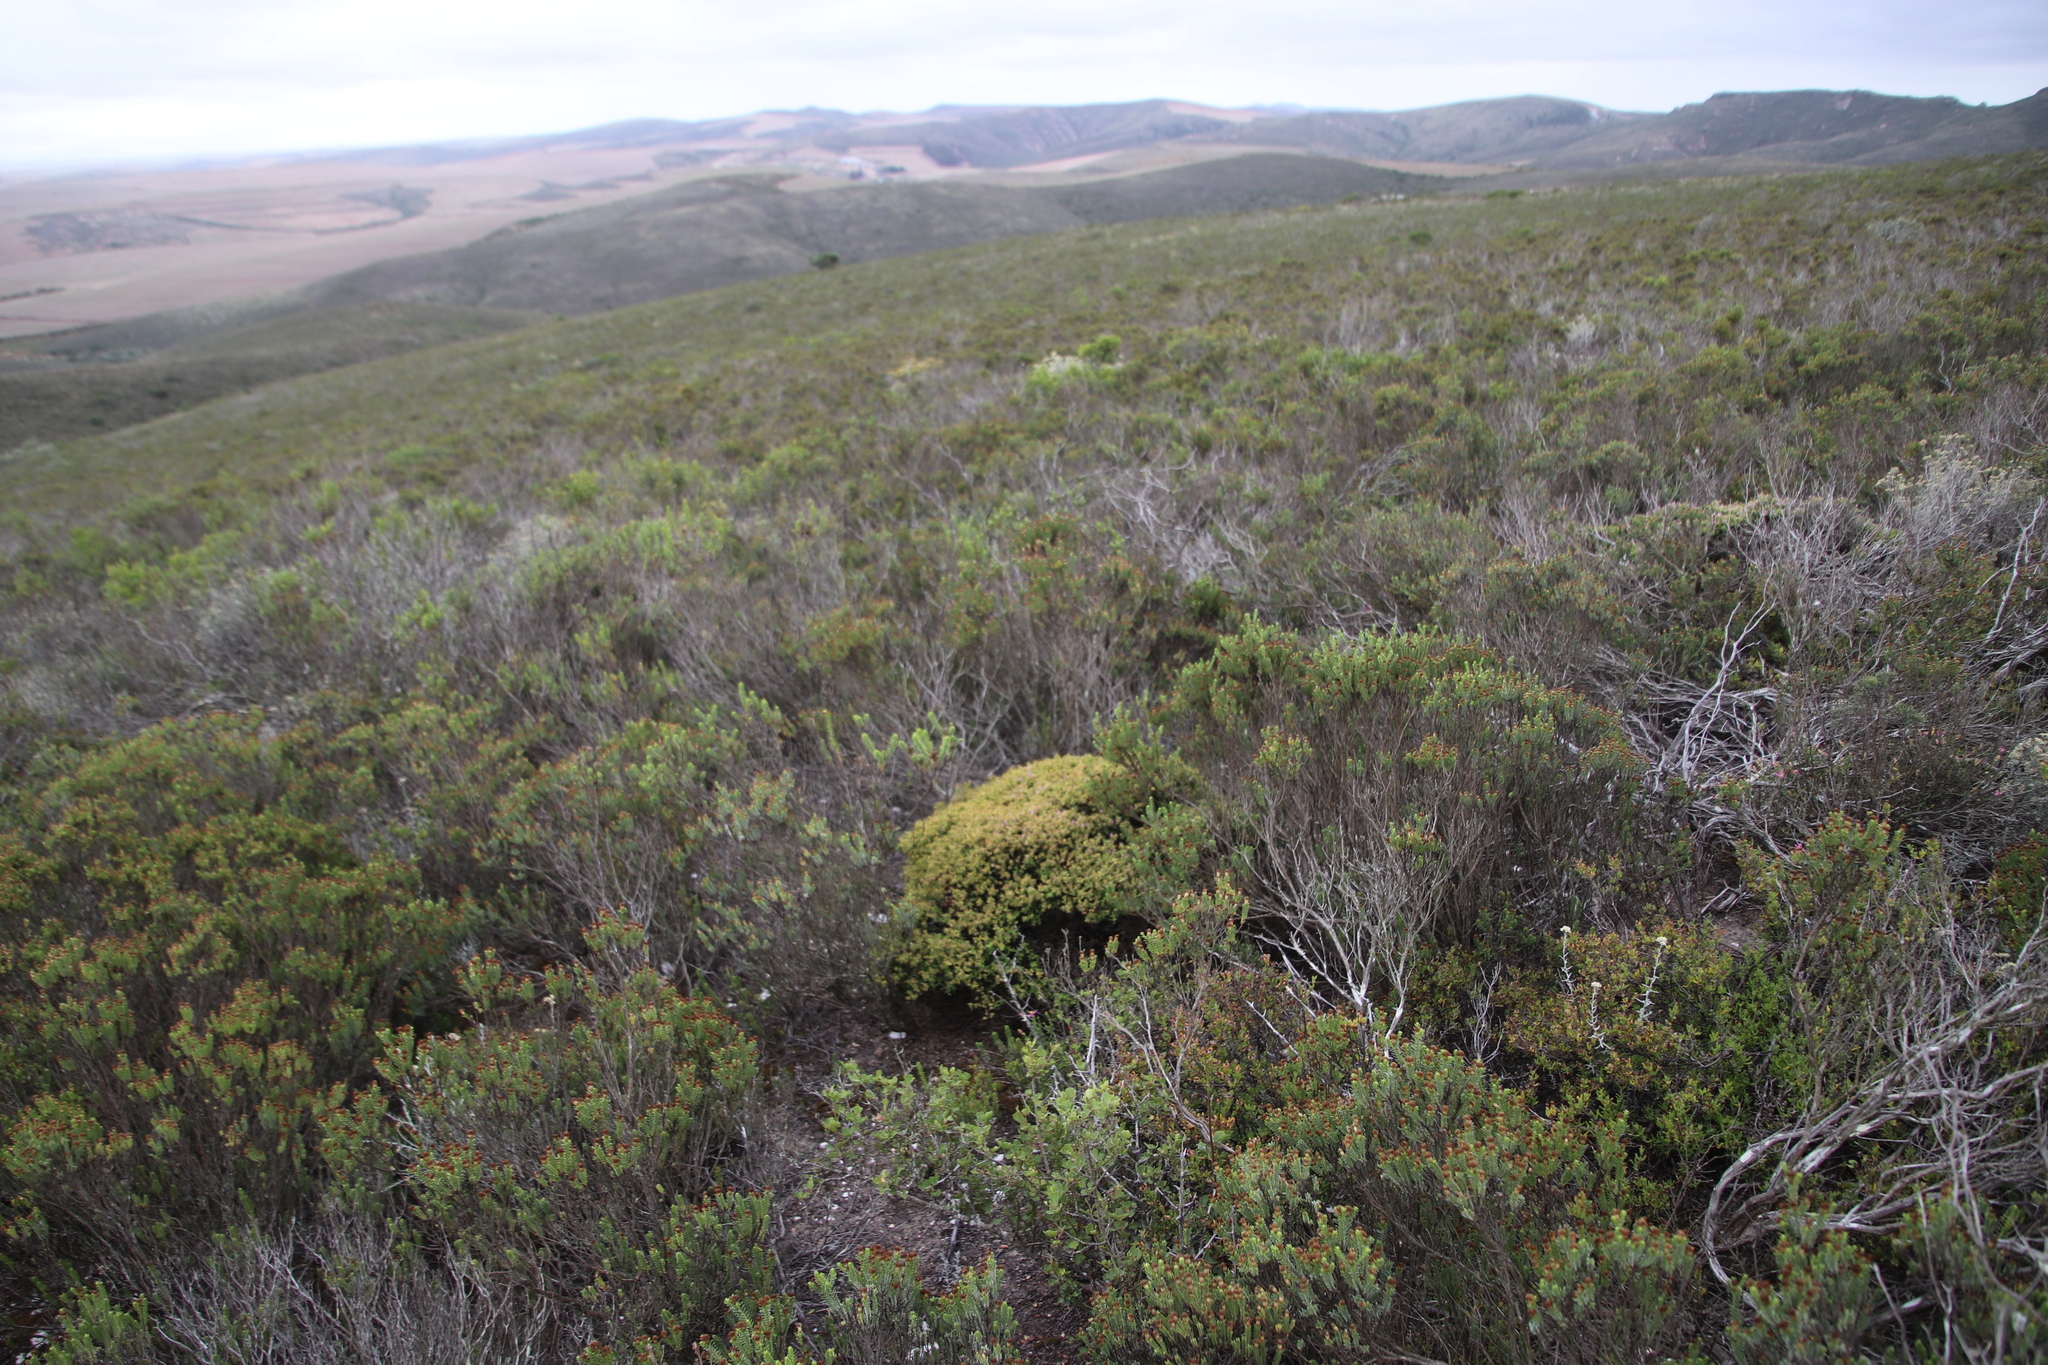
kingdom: Plantae
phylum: Tracheophyta
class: Magnoliopsida
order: Caryophyllales
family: Aizoaceae
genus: Drosanthemum
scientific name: Drosanthemum quadratum
